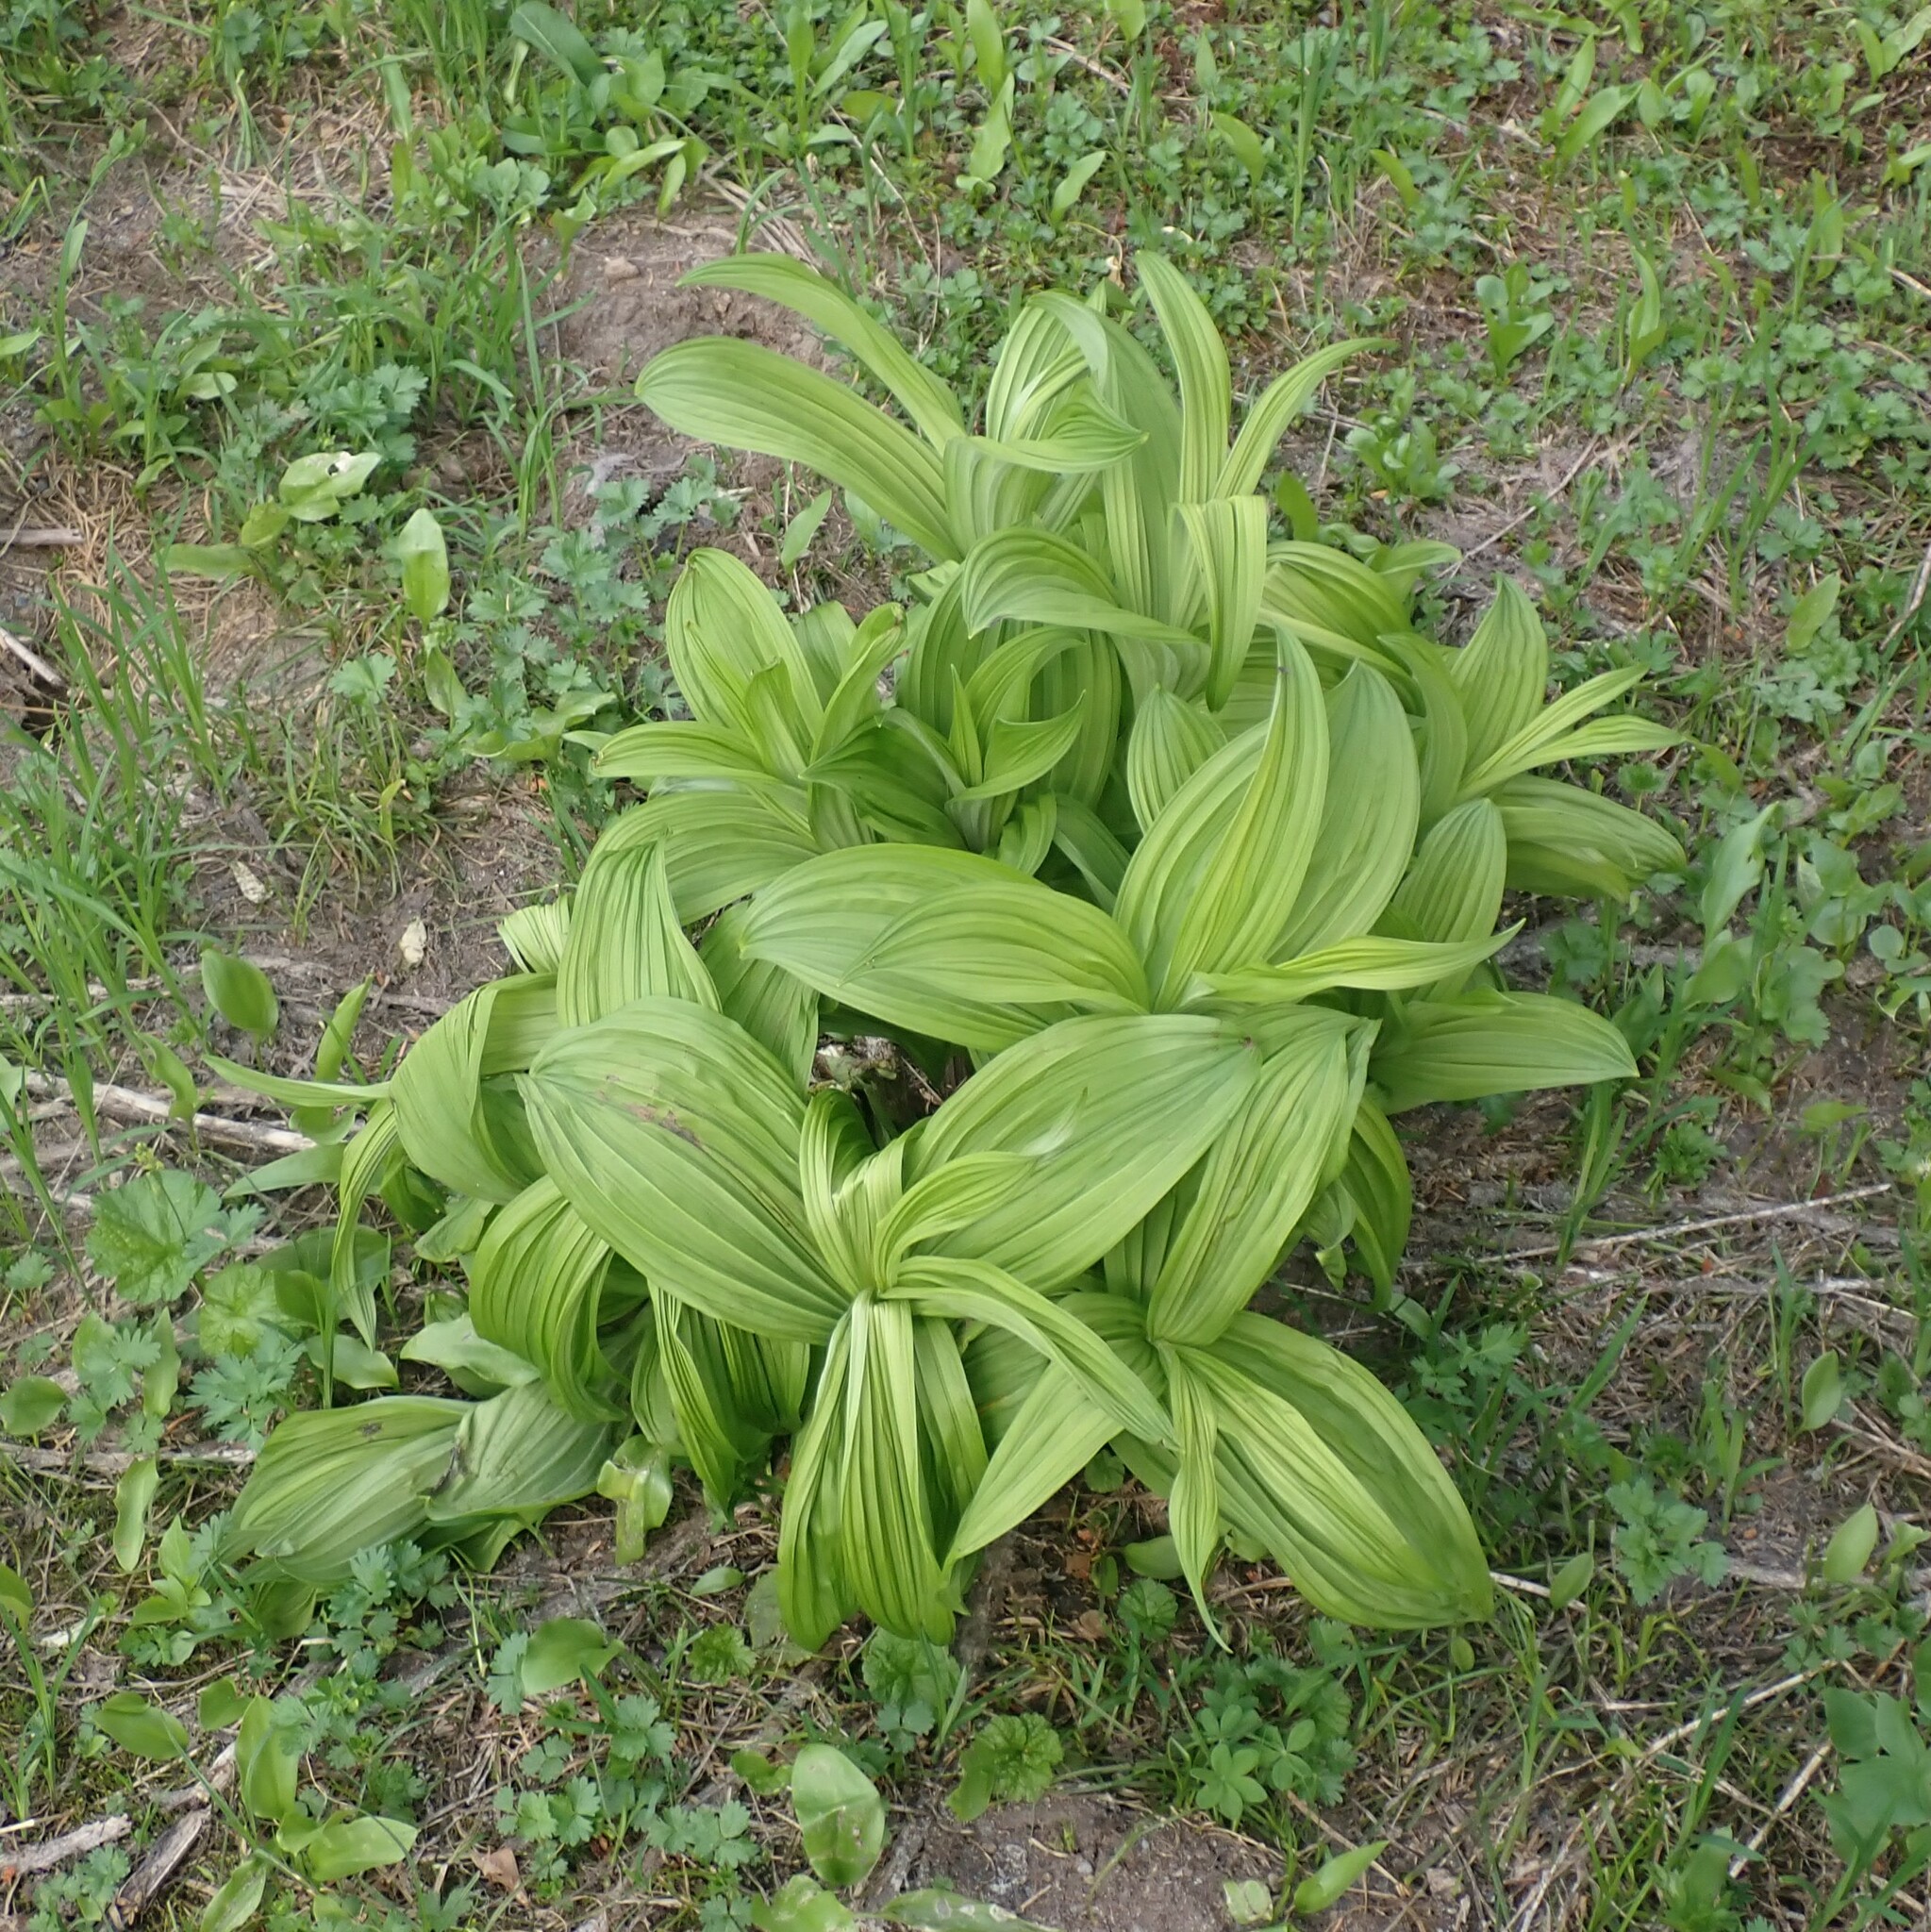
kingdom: Plantae
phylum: Tracheophyta
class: Liliopsida
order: Liliales
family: Melanthiaceae
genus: Veratrum
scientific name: Veratrum viride
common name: American false hellebore
